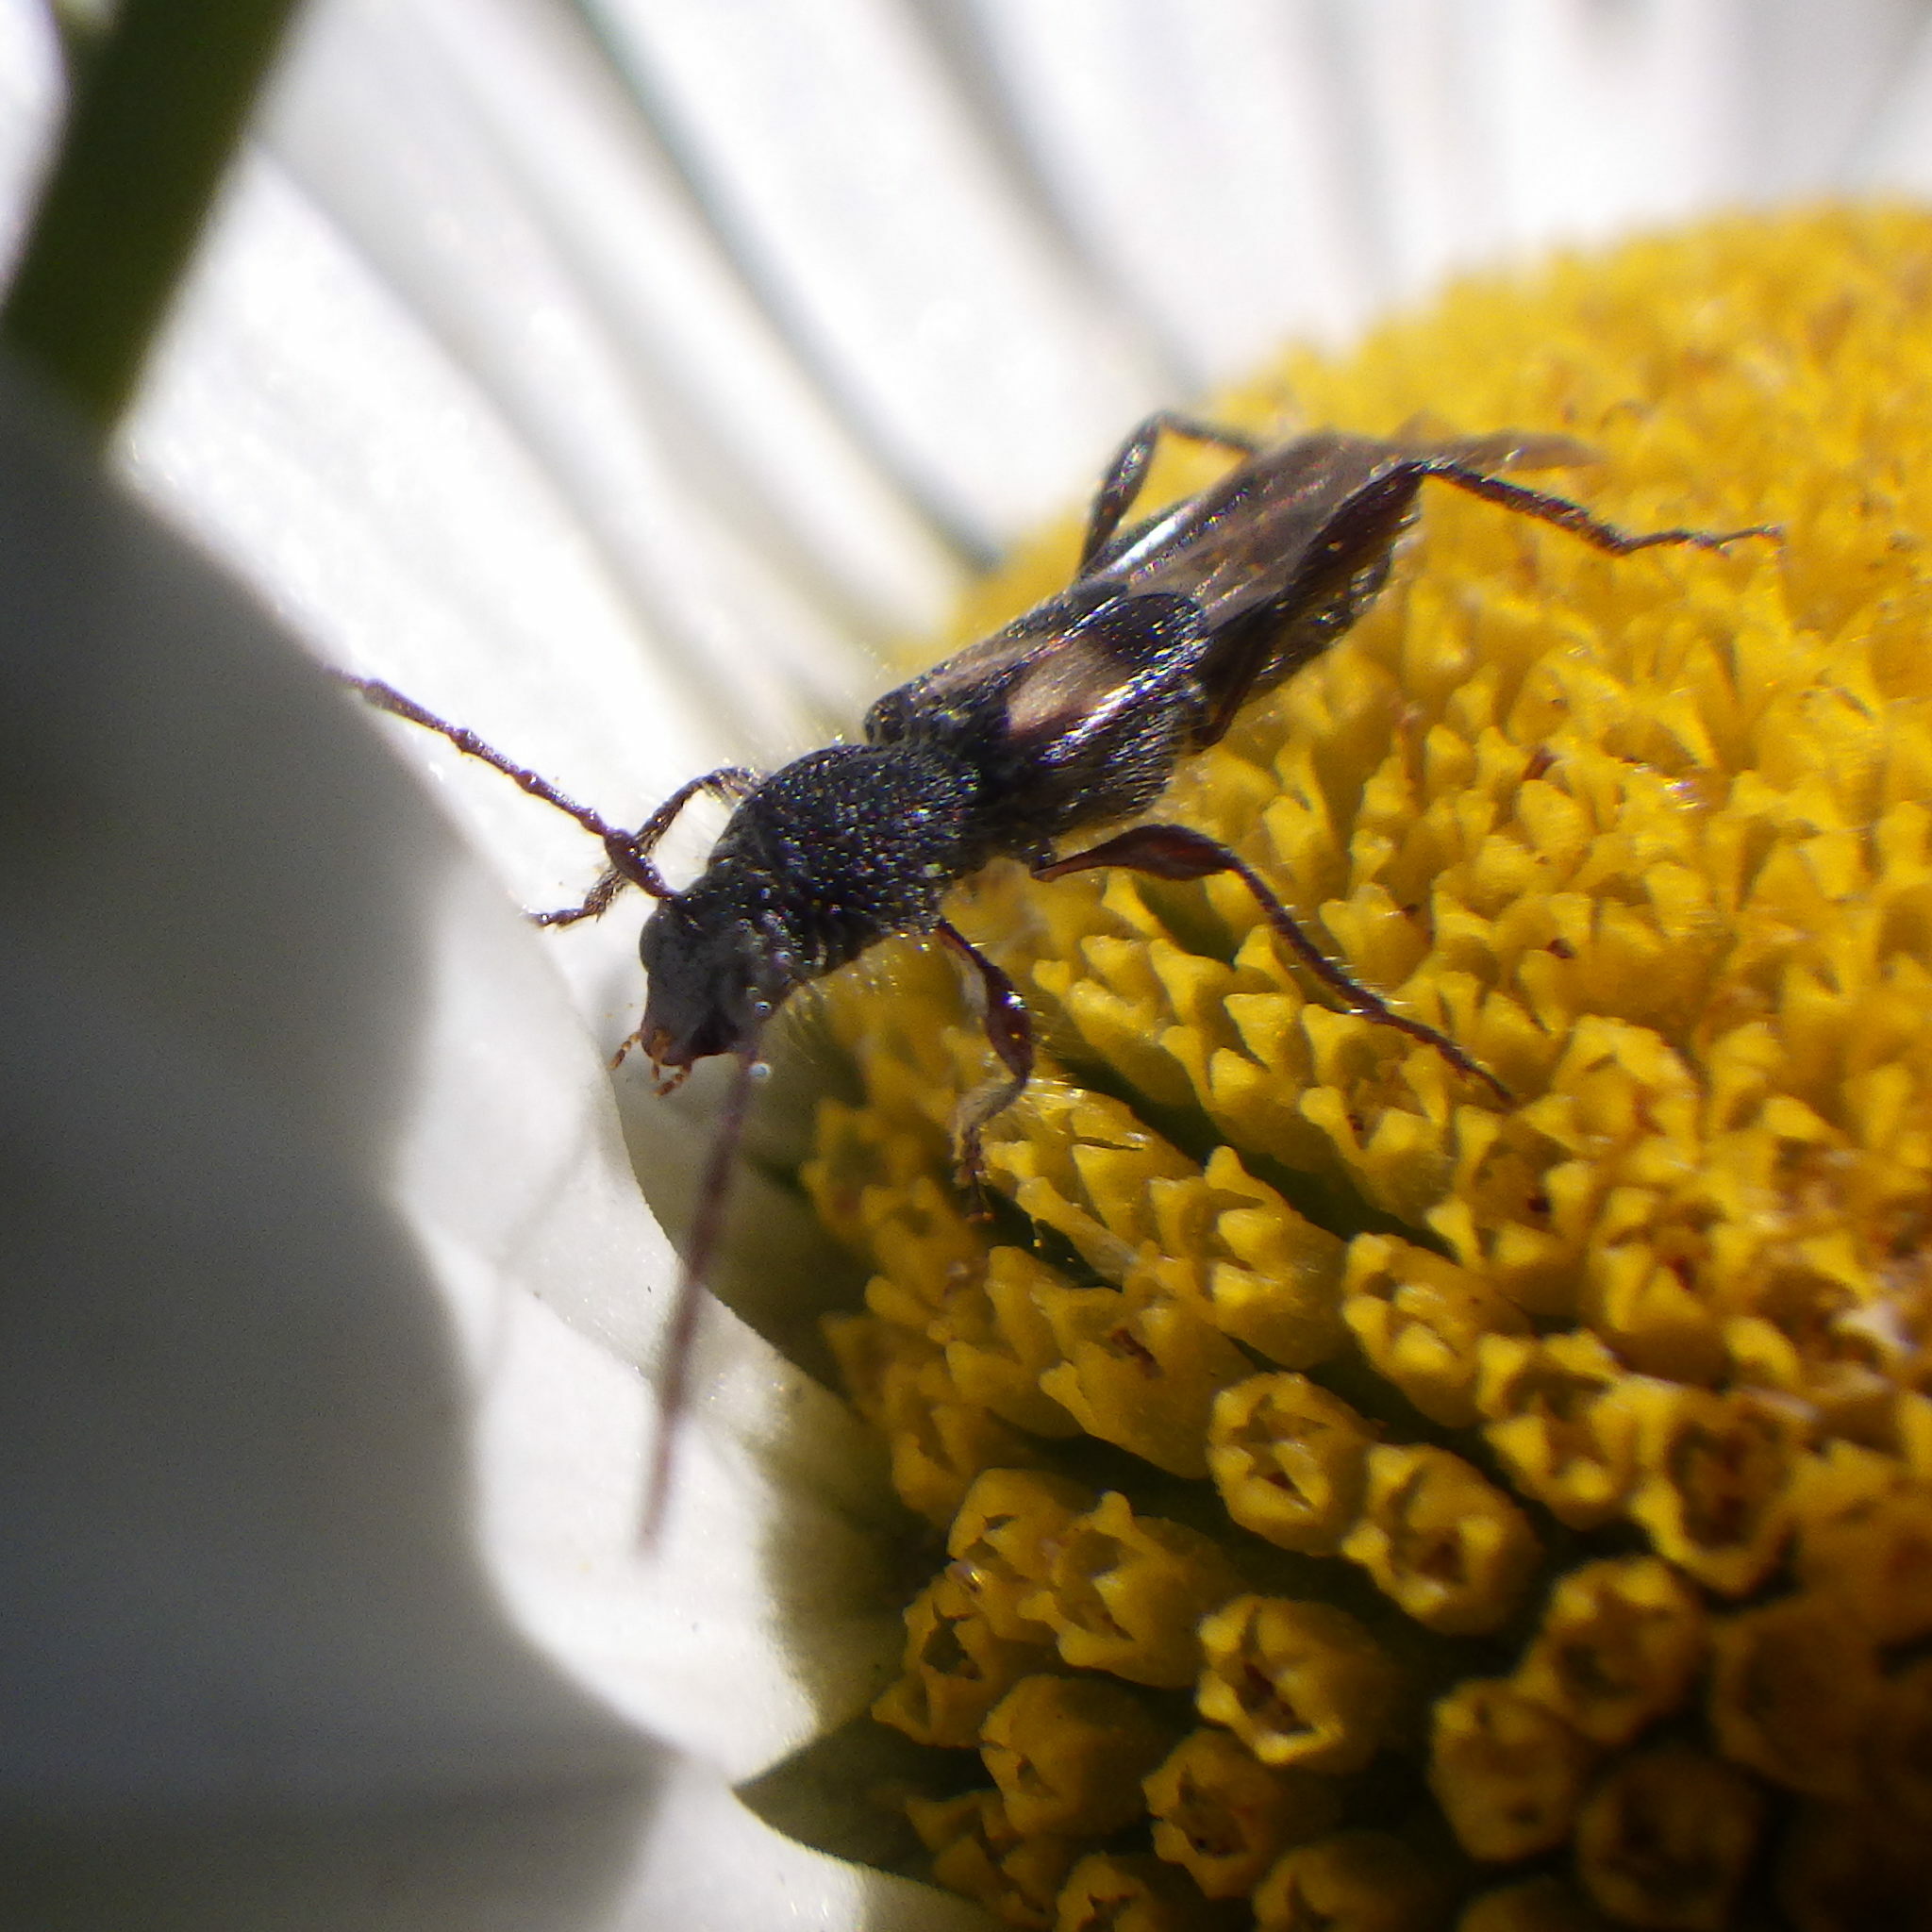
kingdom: Animalia
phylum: Arthropoda
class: Insecta
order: Coleoptera
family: Cerambycidae
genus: Molorchus
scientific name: Molorchus bimaculatus
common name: Bimaculate longhorn beetle
